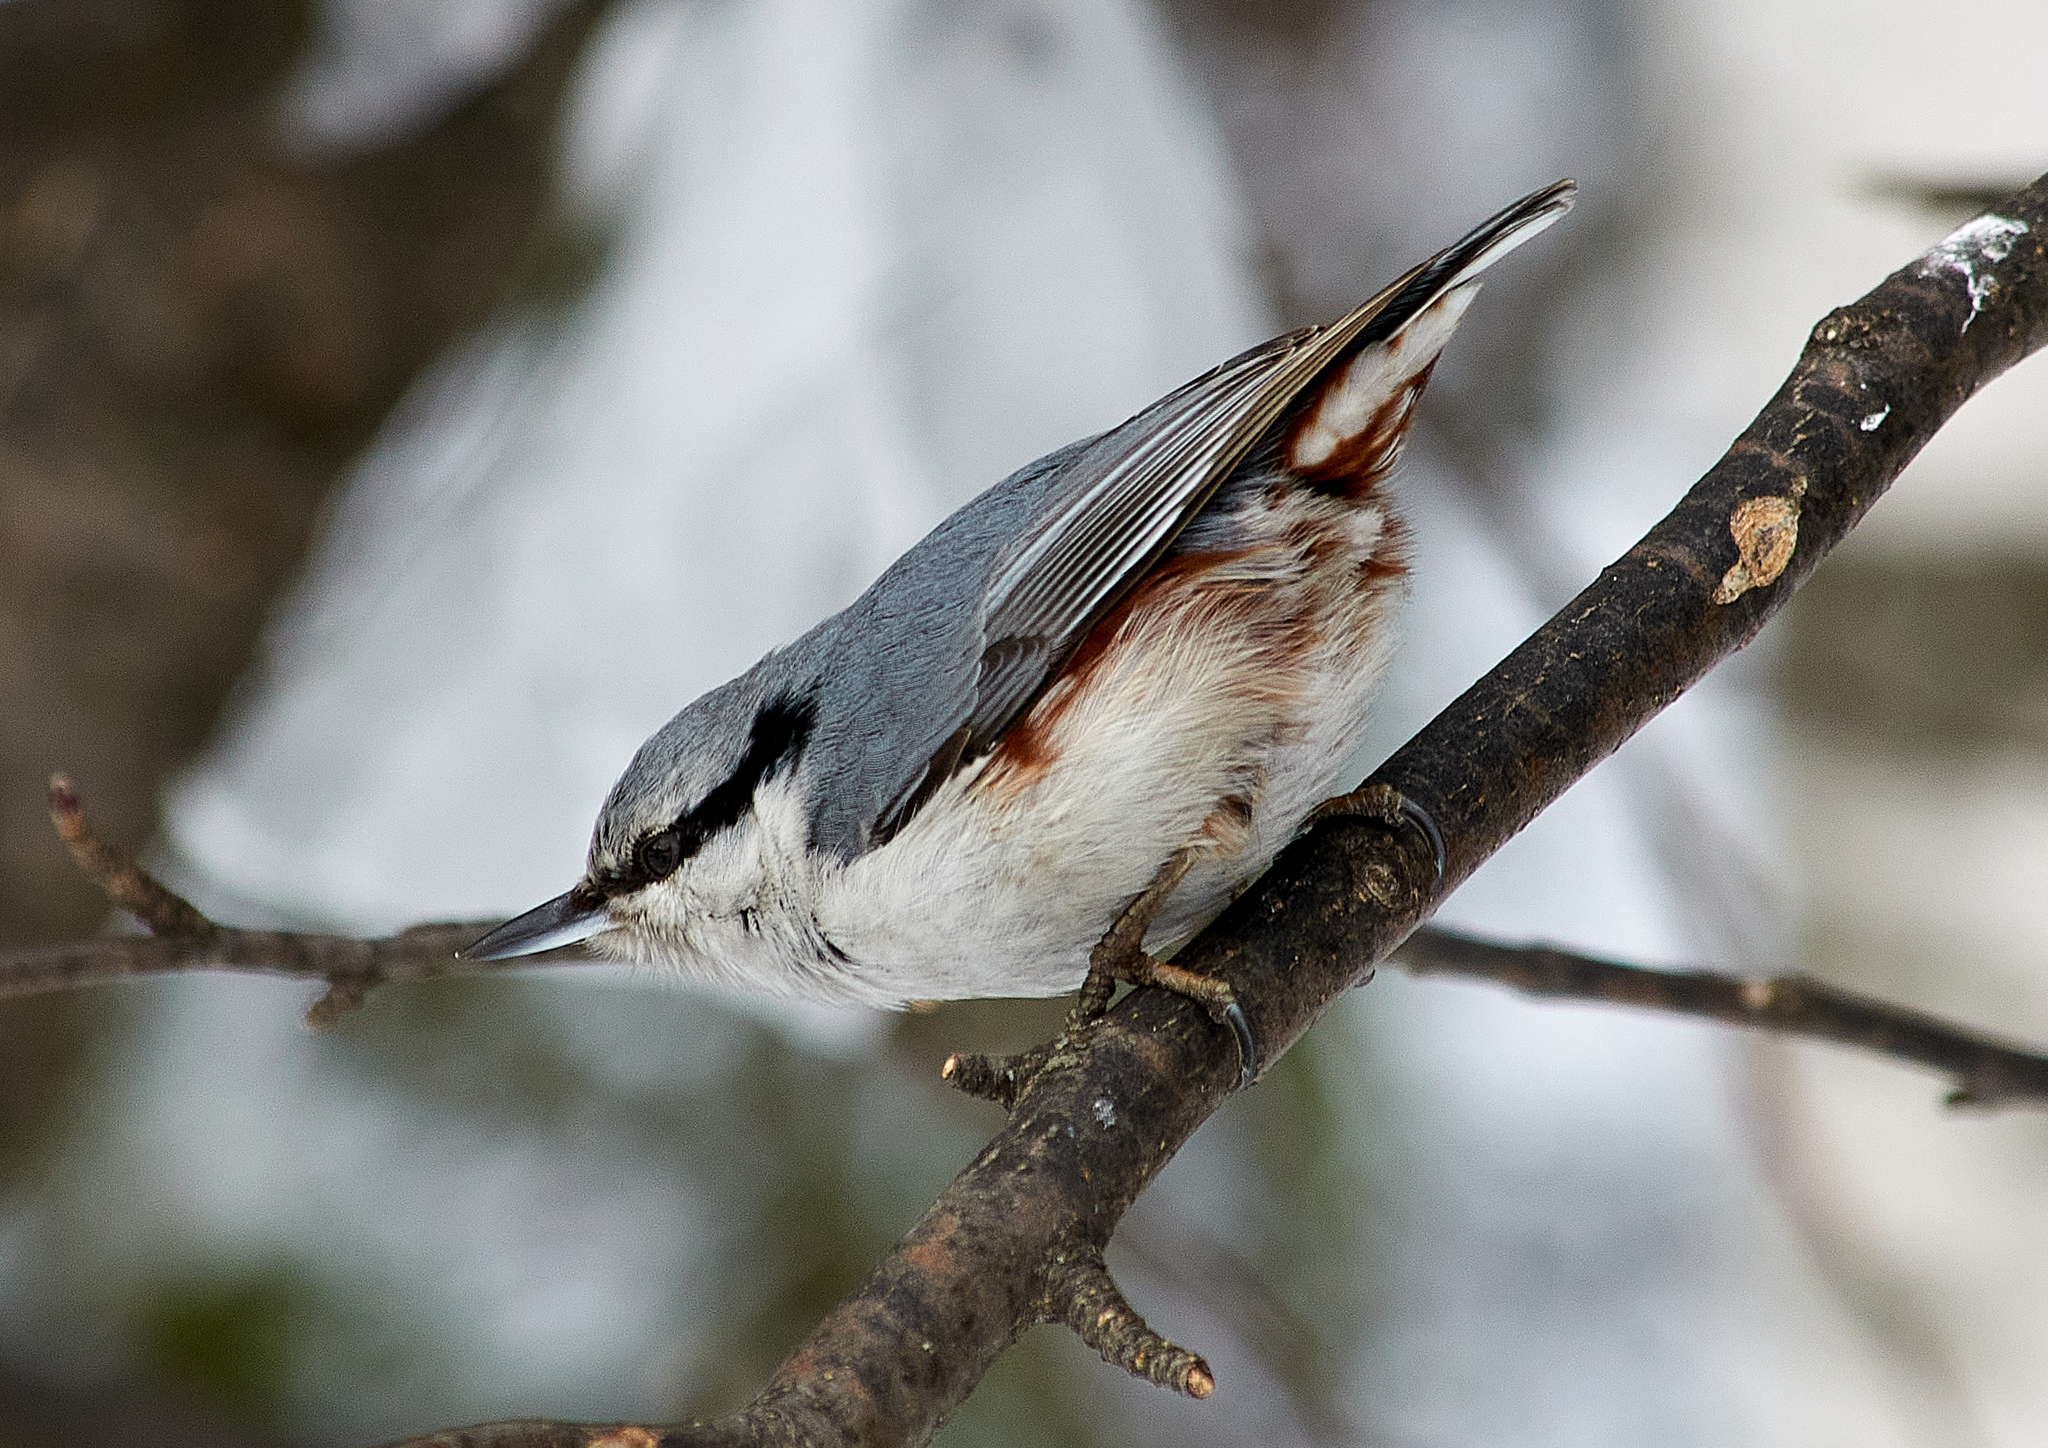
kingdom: Animalia
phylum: Chordata
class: Aves
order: Passeriformes
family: Sittidae
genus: Sitta
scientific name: Sitta europaea
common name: Eurasian nuthatch
